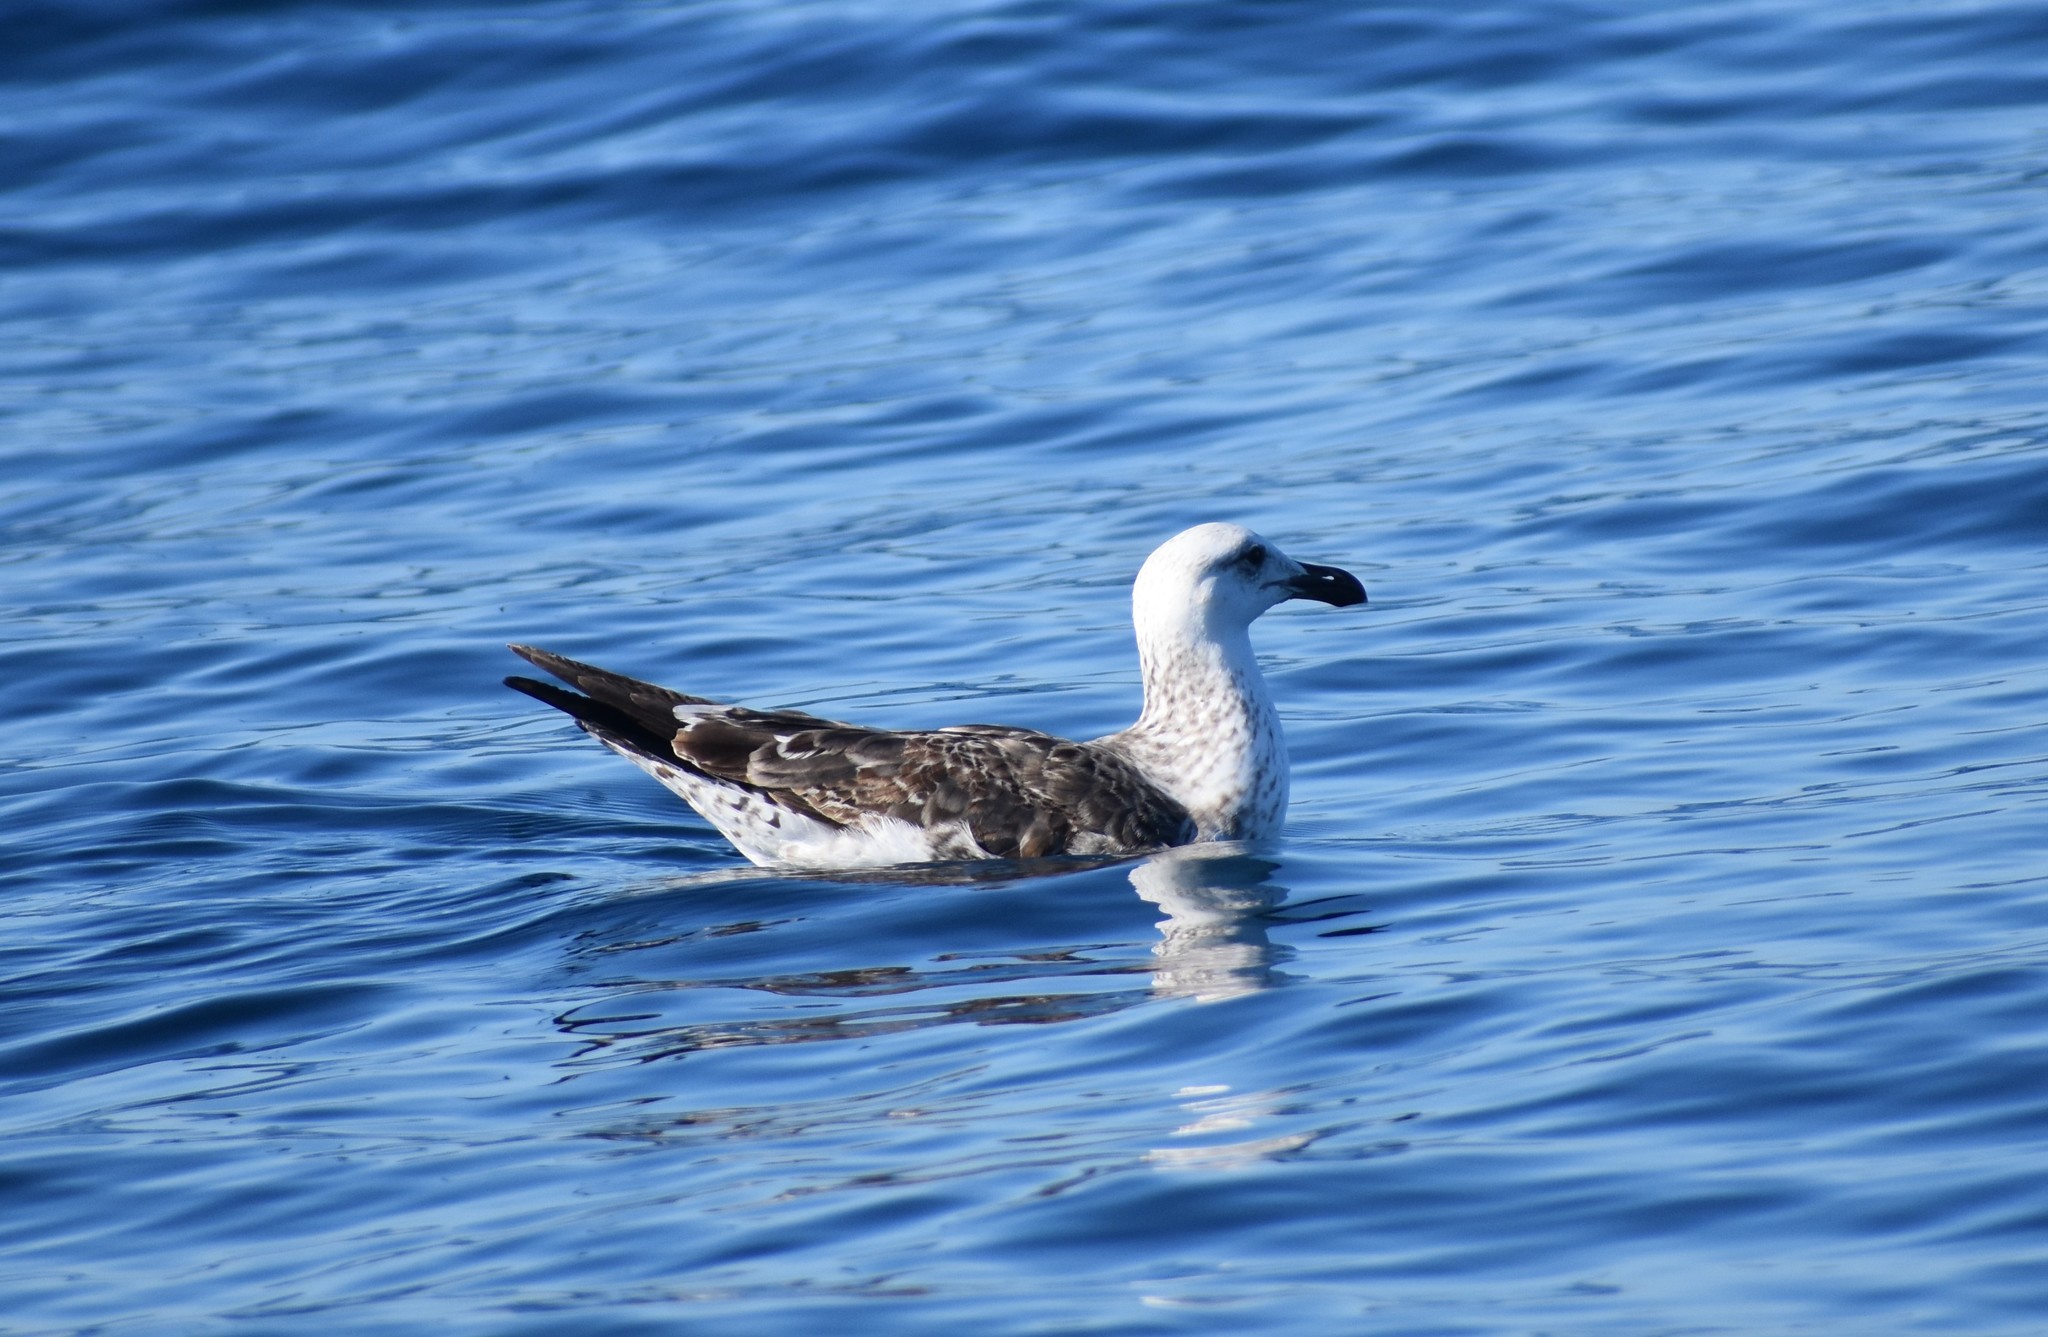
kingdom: Animalia
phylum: Chordata
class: Aves
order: Charadriiformes
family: Laridae
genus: Larus
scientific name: Larus dominicanus
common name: Kelp gull
